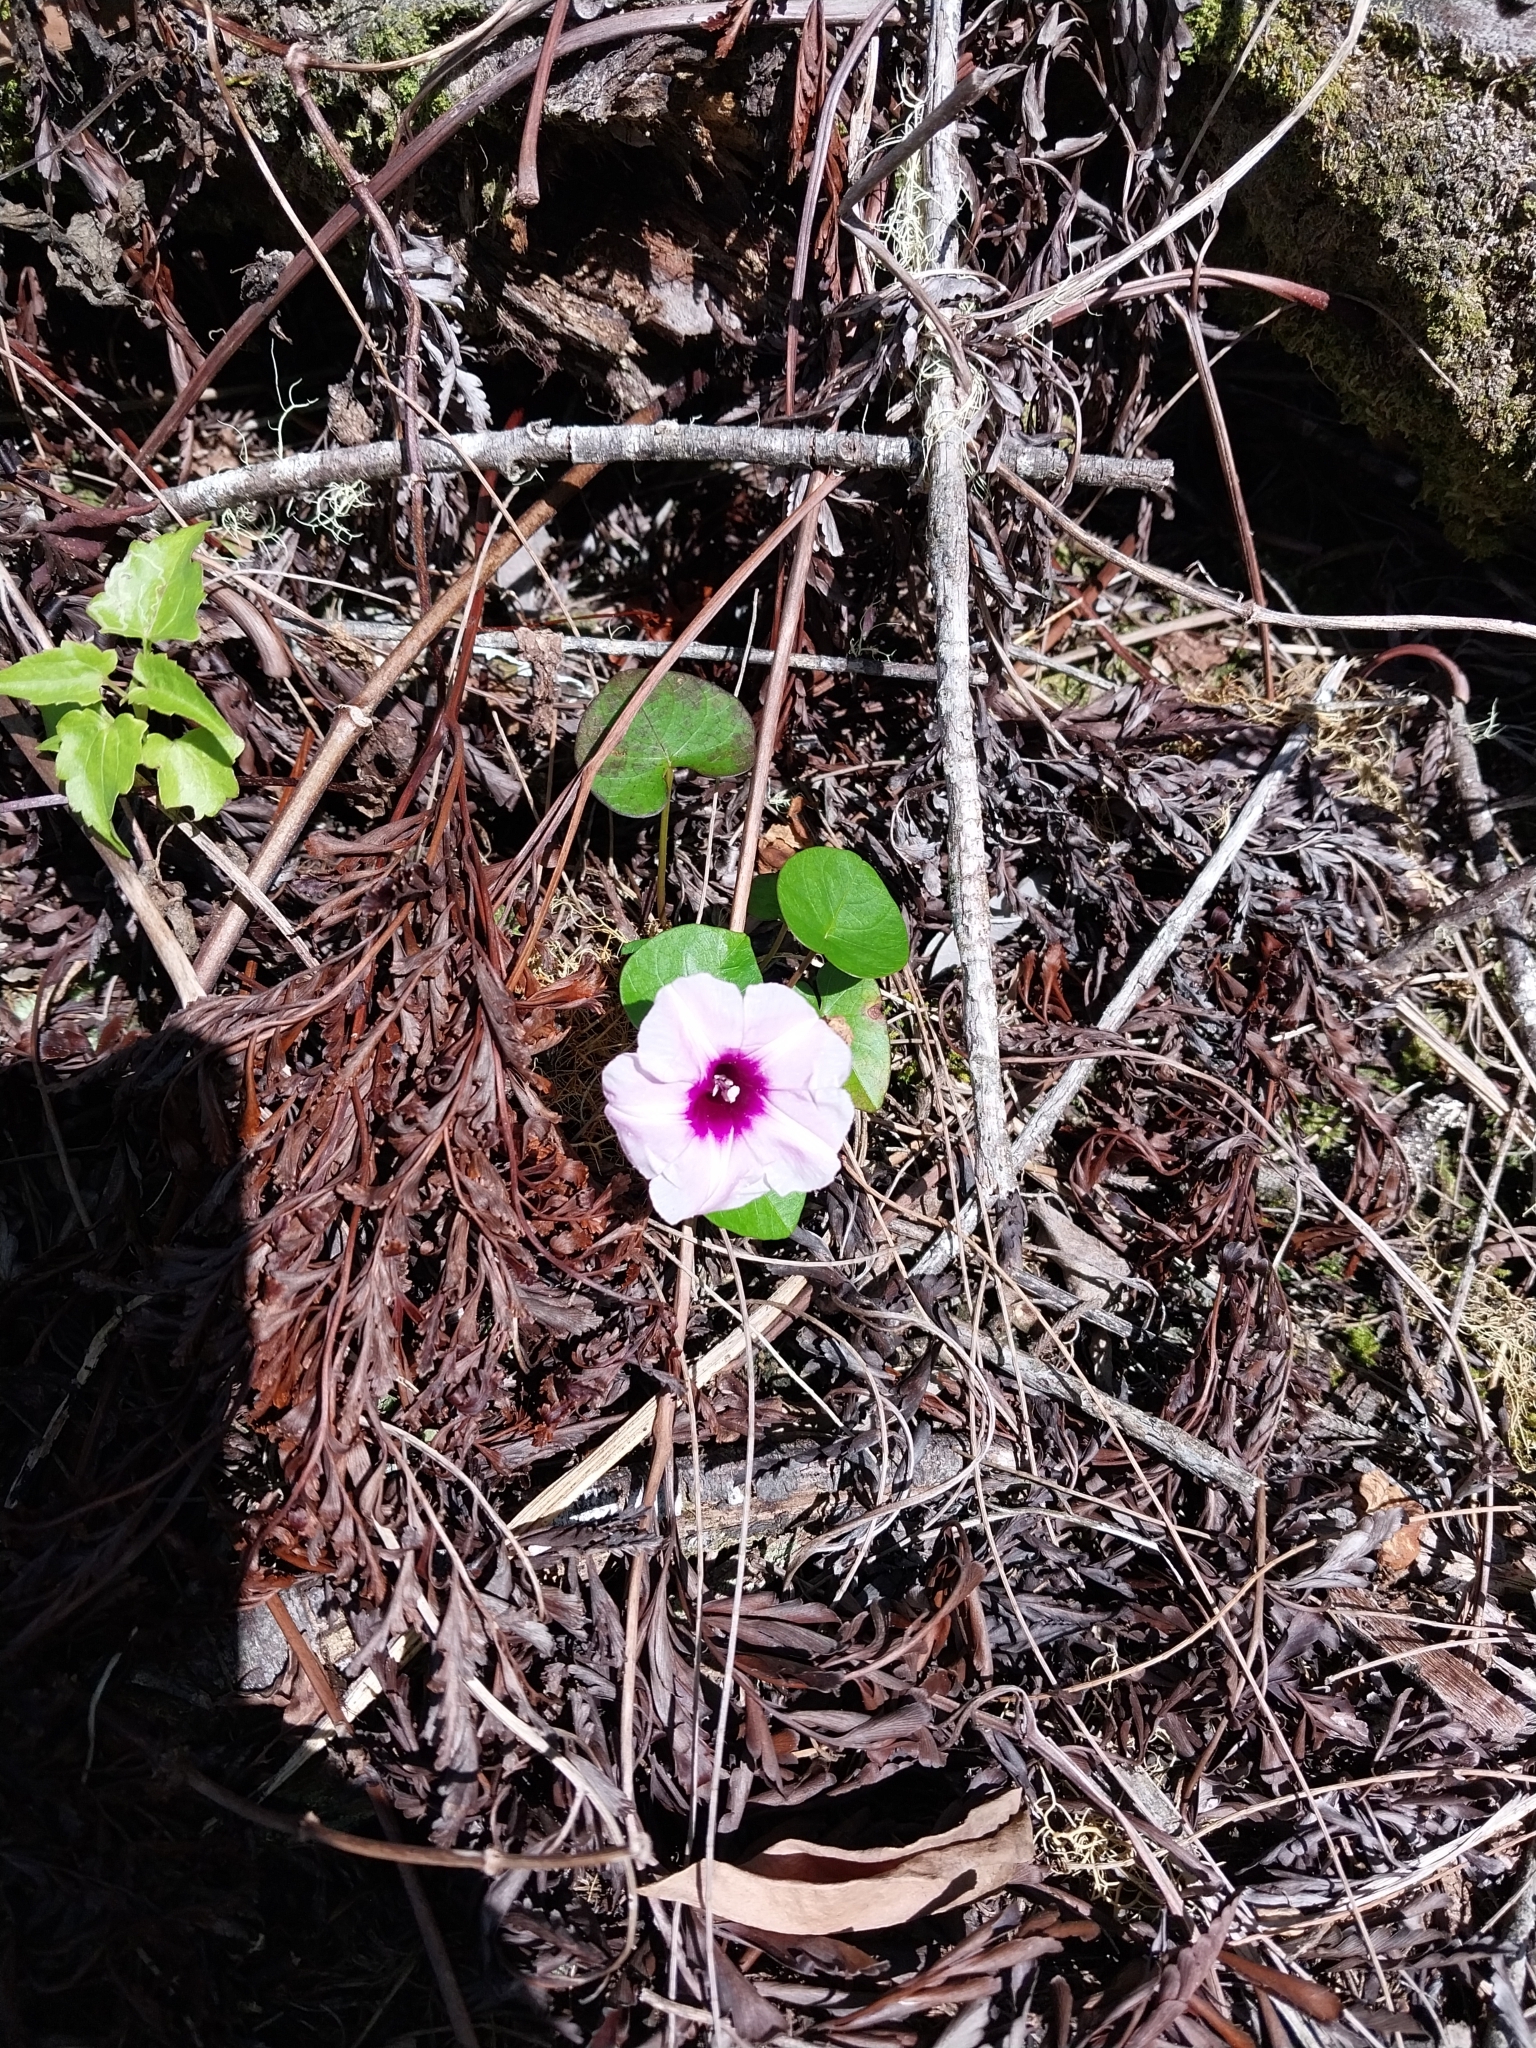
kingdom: Plantae
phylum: Tracheophyta
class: Magnoliopsida
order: Solanales
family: Convolvulaceae
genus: Ipomoea
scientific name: Ipomoea littoralis
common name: Coastal morning glory
